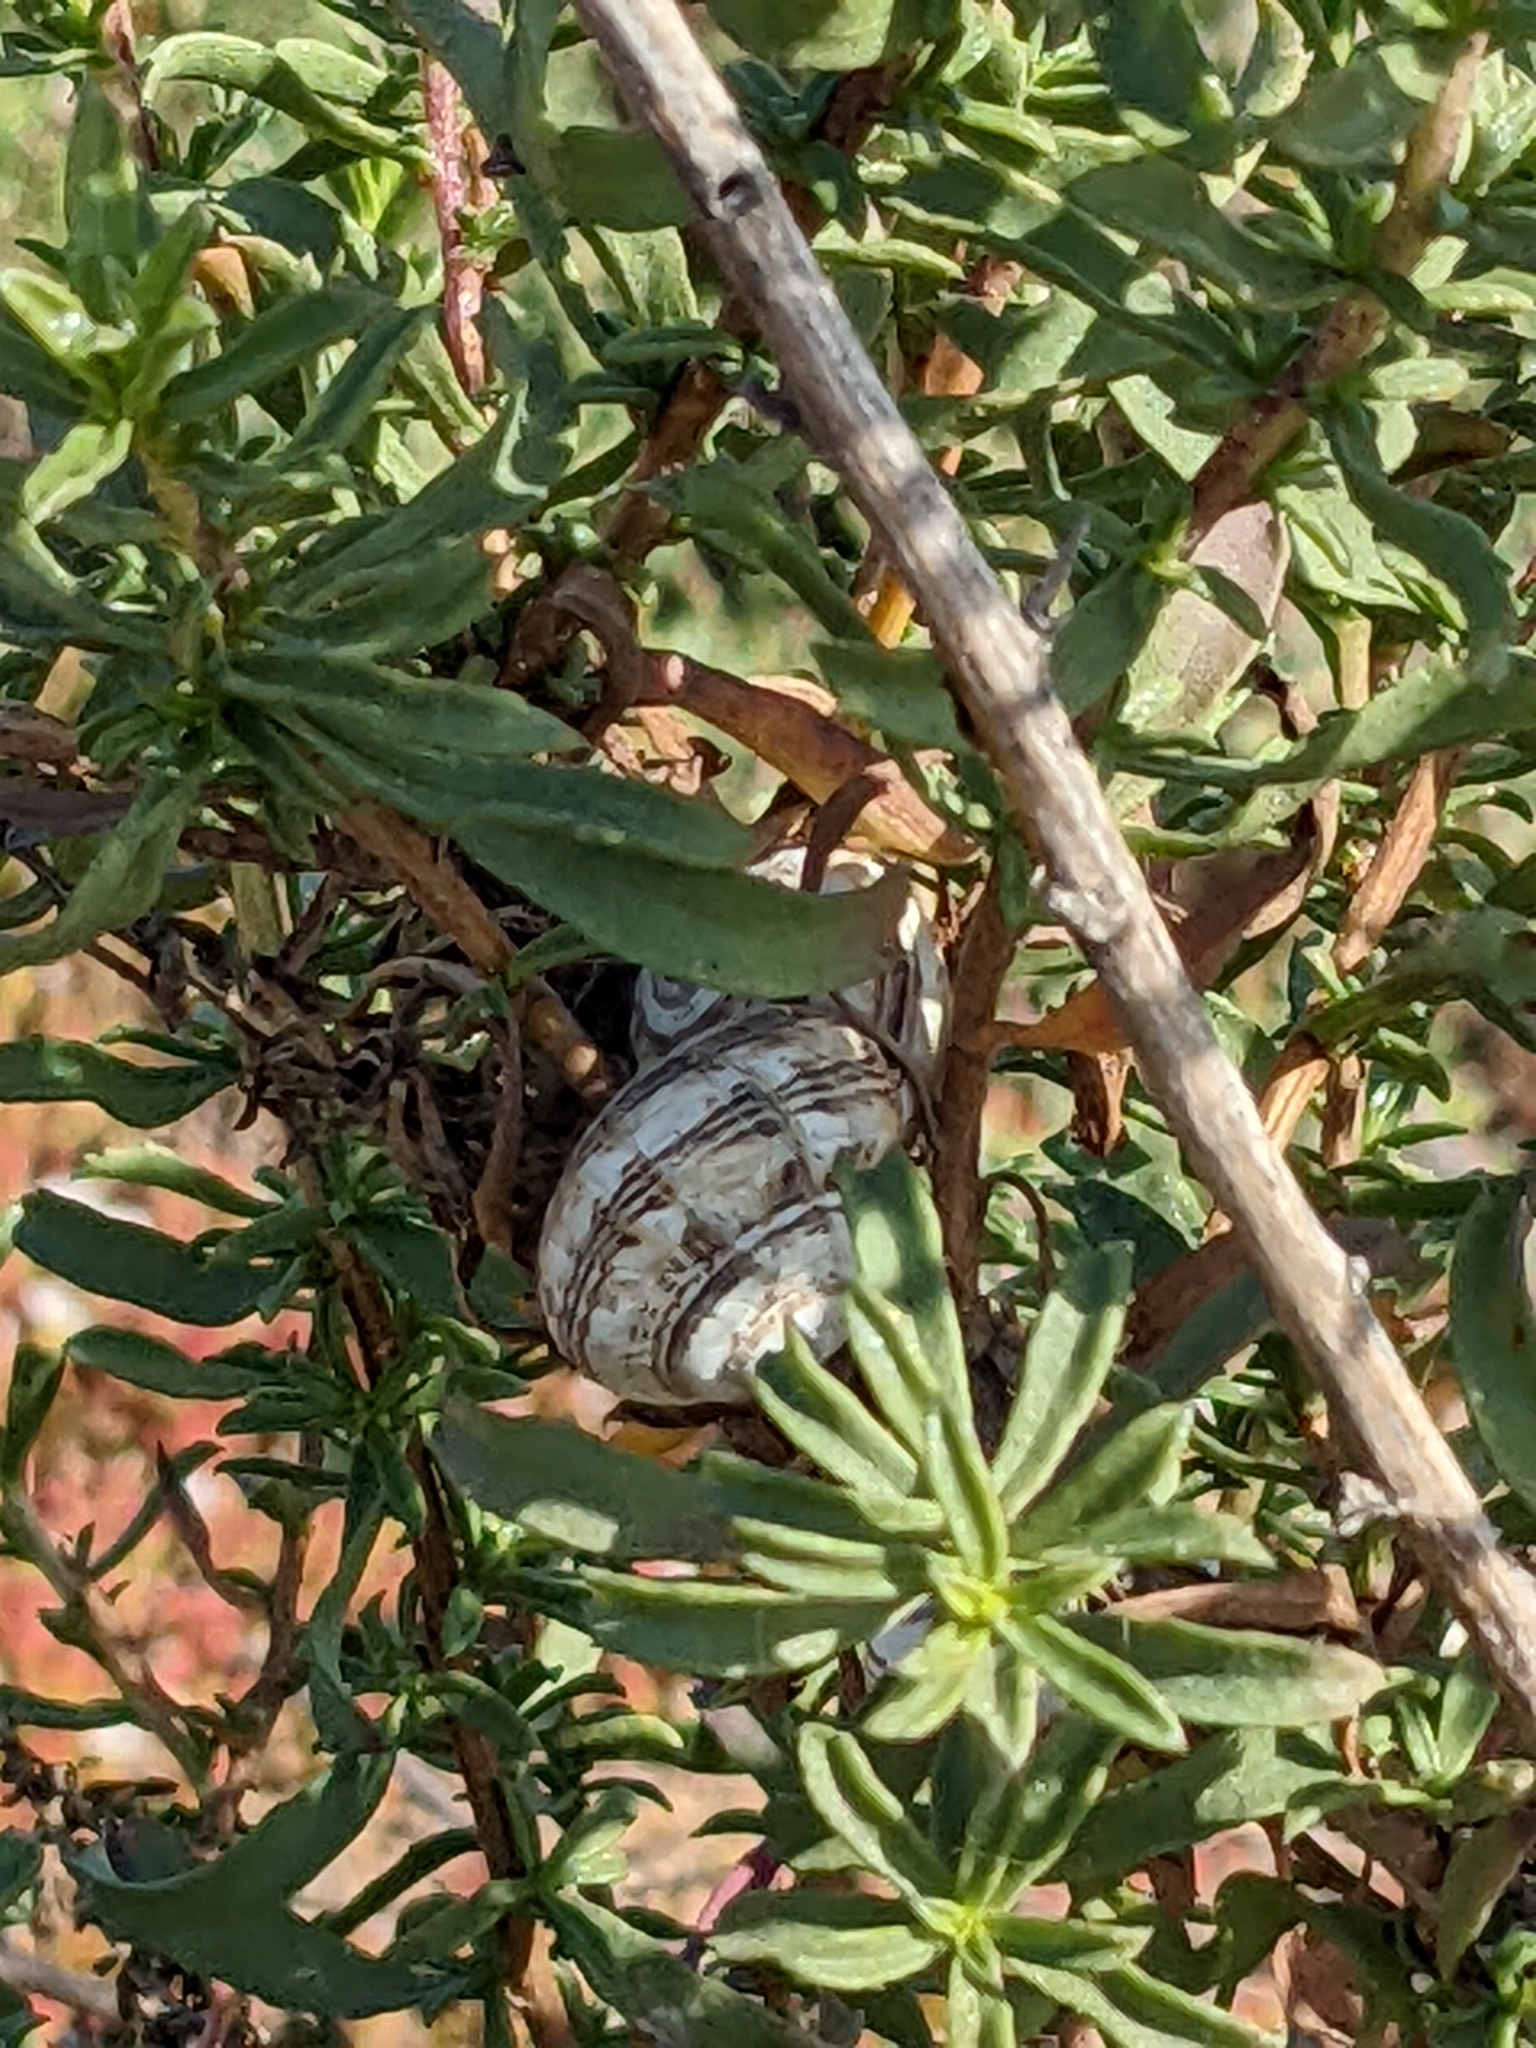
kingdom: Animalia
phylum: Mollusca
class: Gastropoda
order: Stylommatophora
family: Helicidae
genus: Theba
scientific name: Theba pisana
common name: White snail
